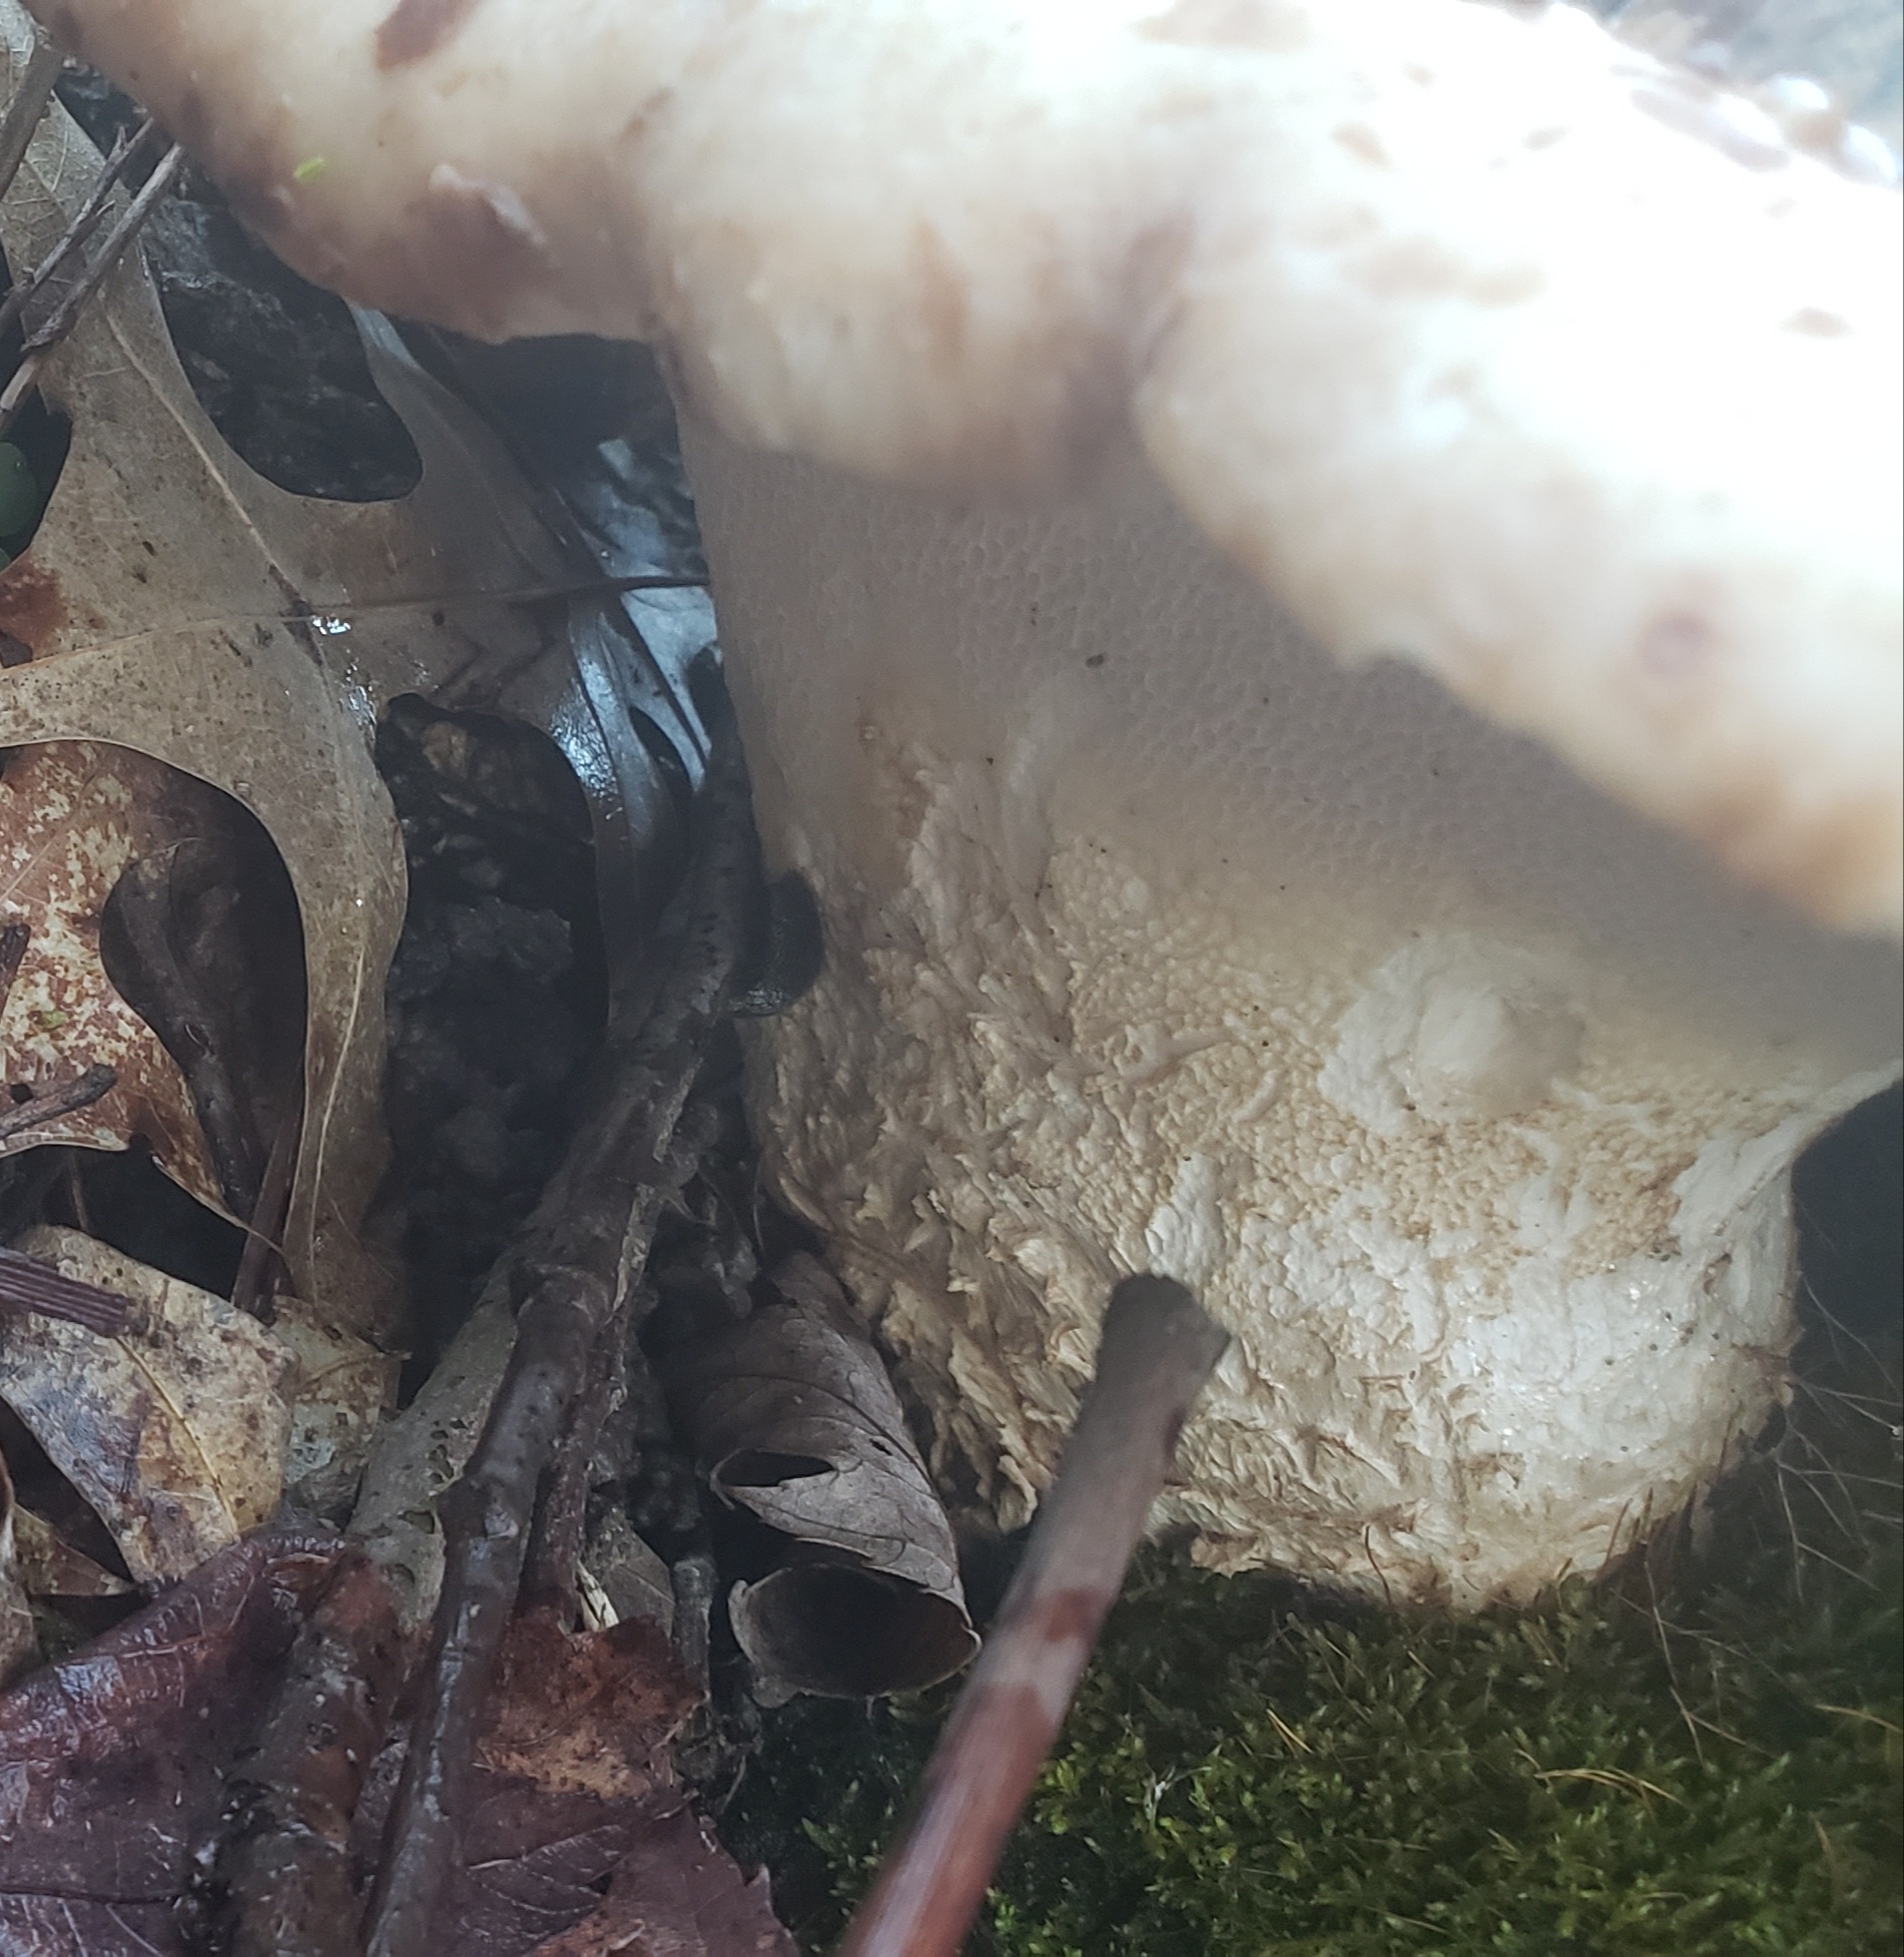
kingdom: Fungi
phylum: Basidiomycota
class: Agaricomycetes
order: Polyporales
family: Polyporaceae
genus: Cerioporus
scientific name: Cerioporus squamosus
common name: Dryad's saddle
